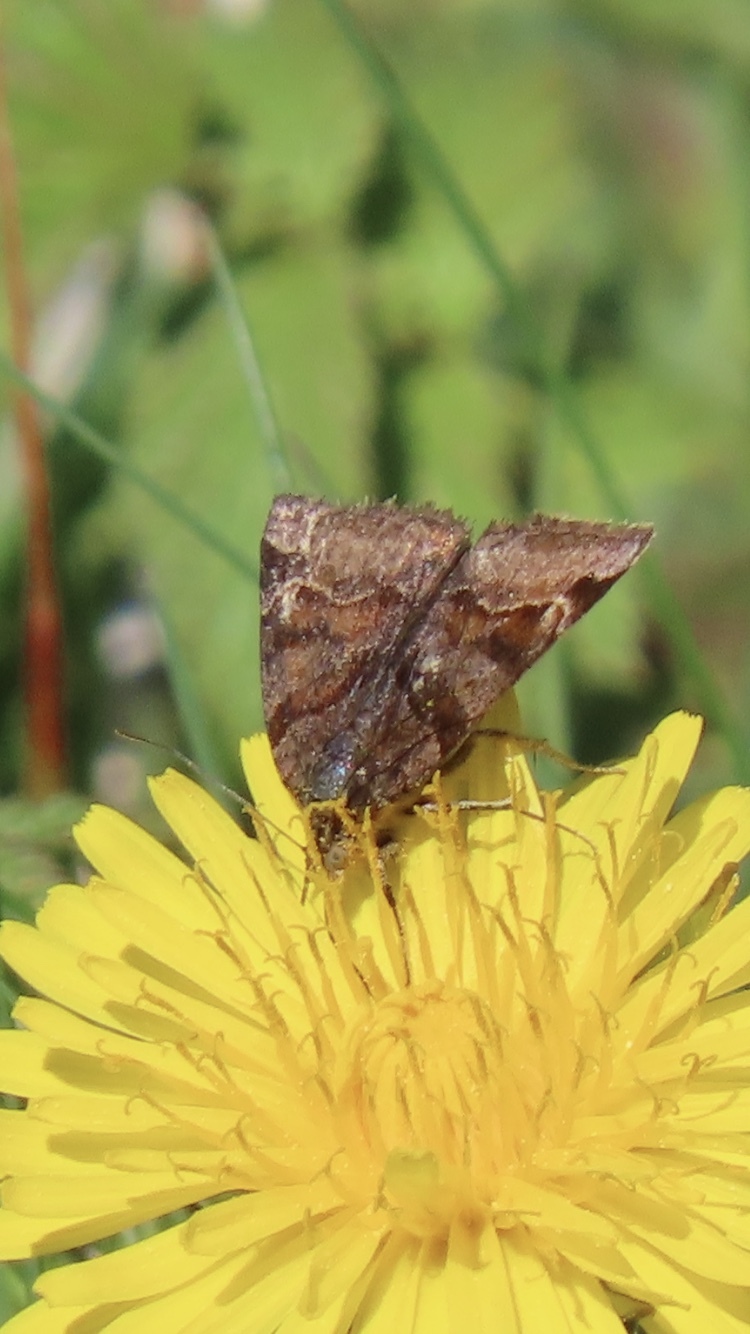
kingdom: Animalia
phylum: Arthropoda
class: Insecta
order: Lepidoptera
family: Erebidae
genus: Euclidia
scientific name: Euclidia glyphica
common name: Burnet companion
